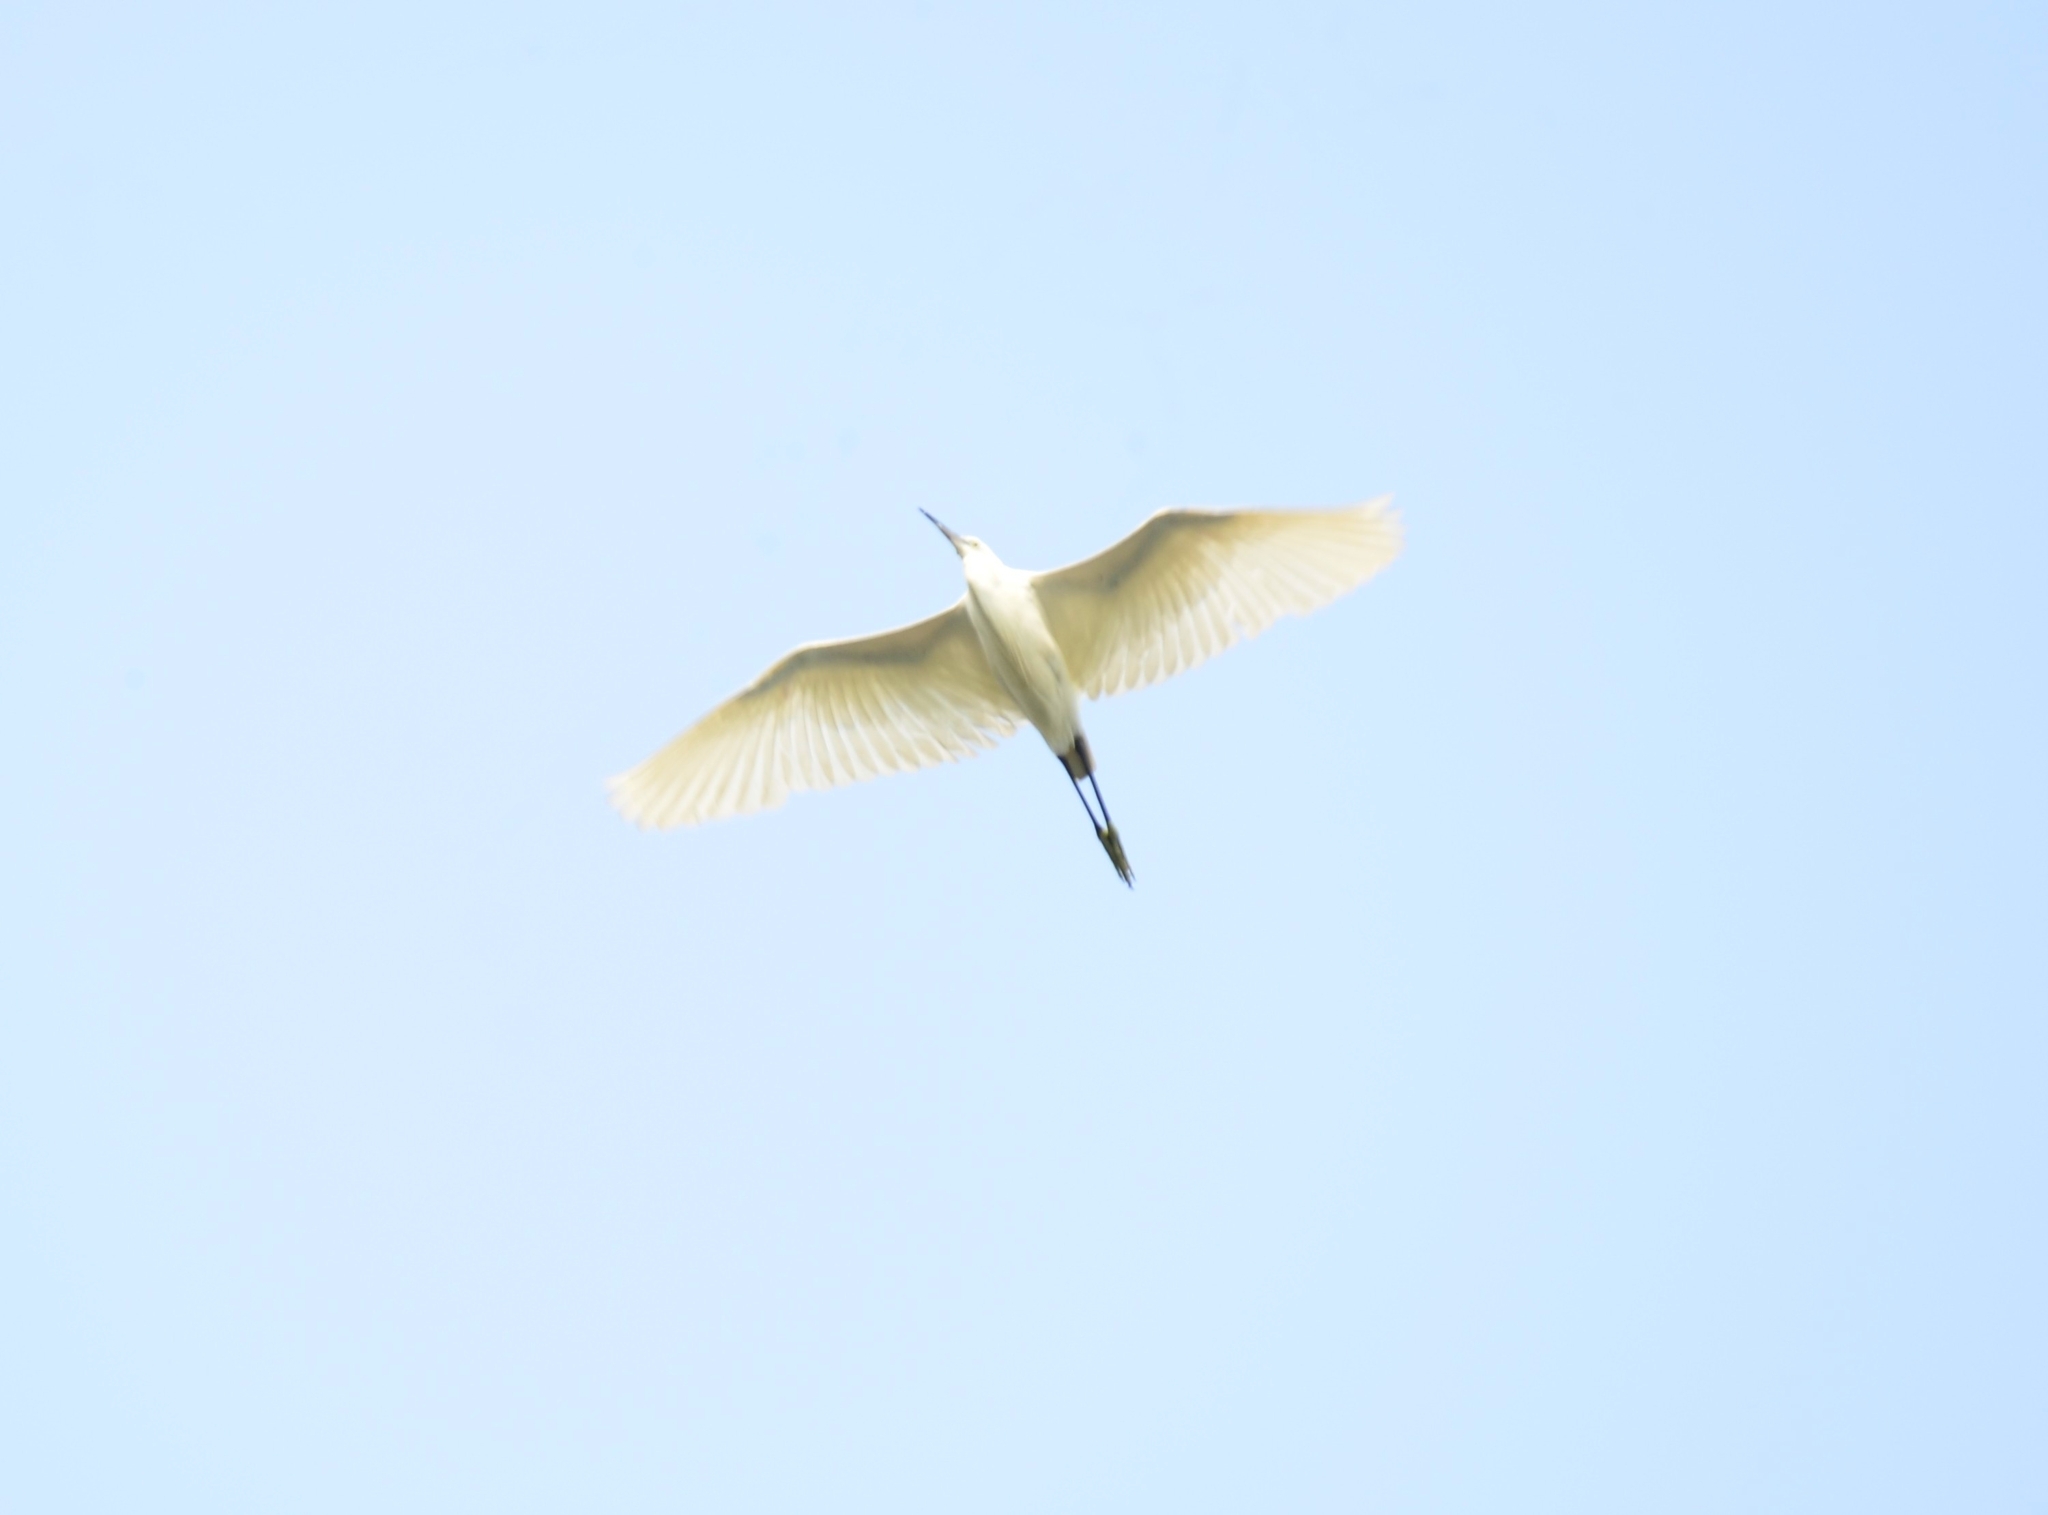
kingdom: Animalia
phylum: Chordata
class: Aves
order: Pelecaniformes
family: Ardeidae
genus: Egretta
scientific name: Egretta garzetta
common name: Little egret
